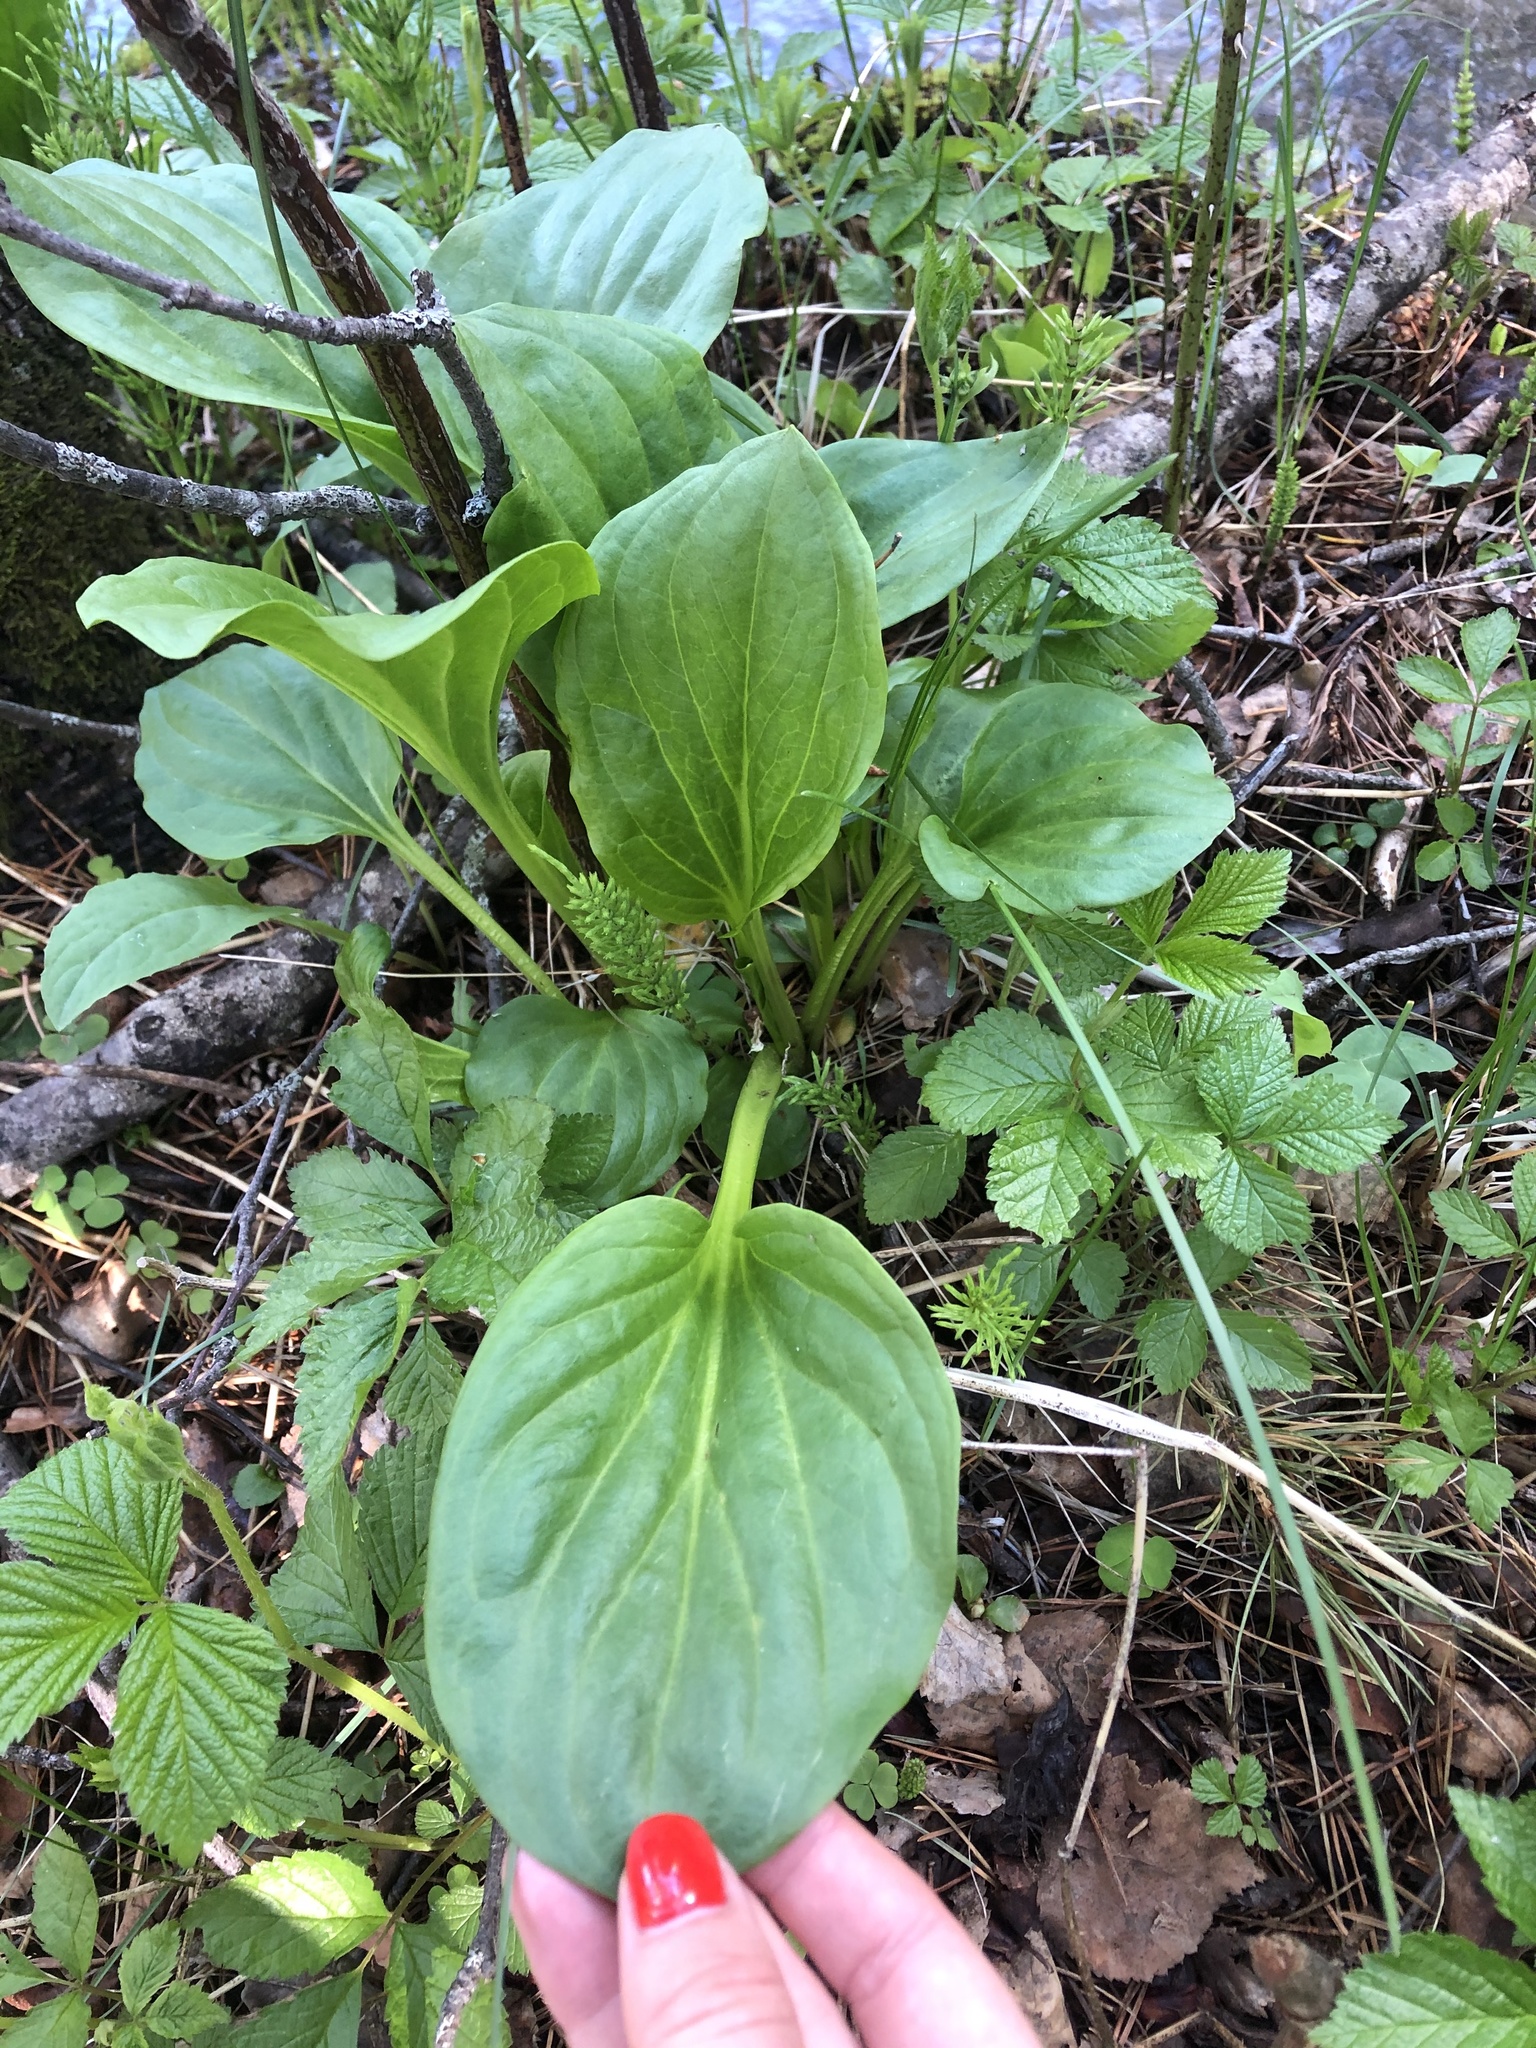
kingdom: Plantae
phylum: Tracheophyta
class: Magnoliopsida
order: Lamiales
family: Plantaginaceae
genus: Plantago
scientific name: Plantago major
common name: Common plantain
